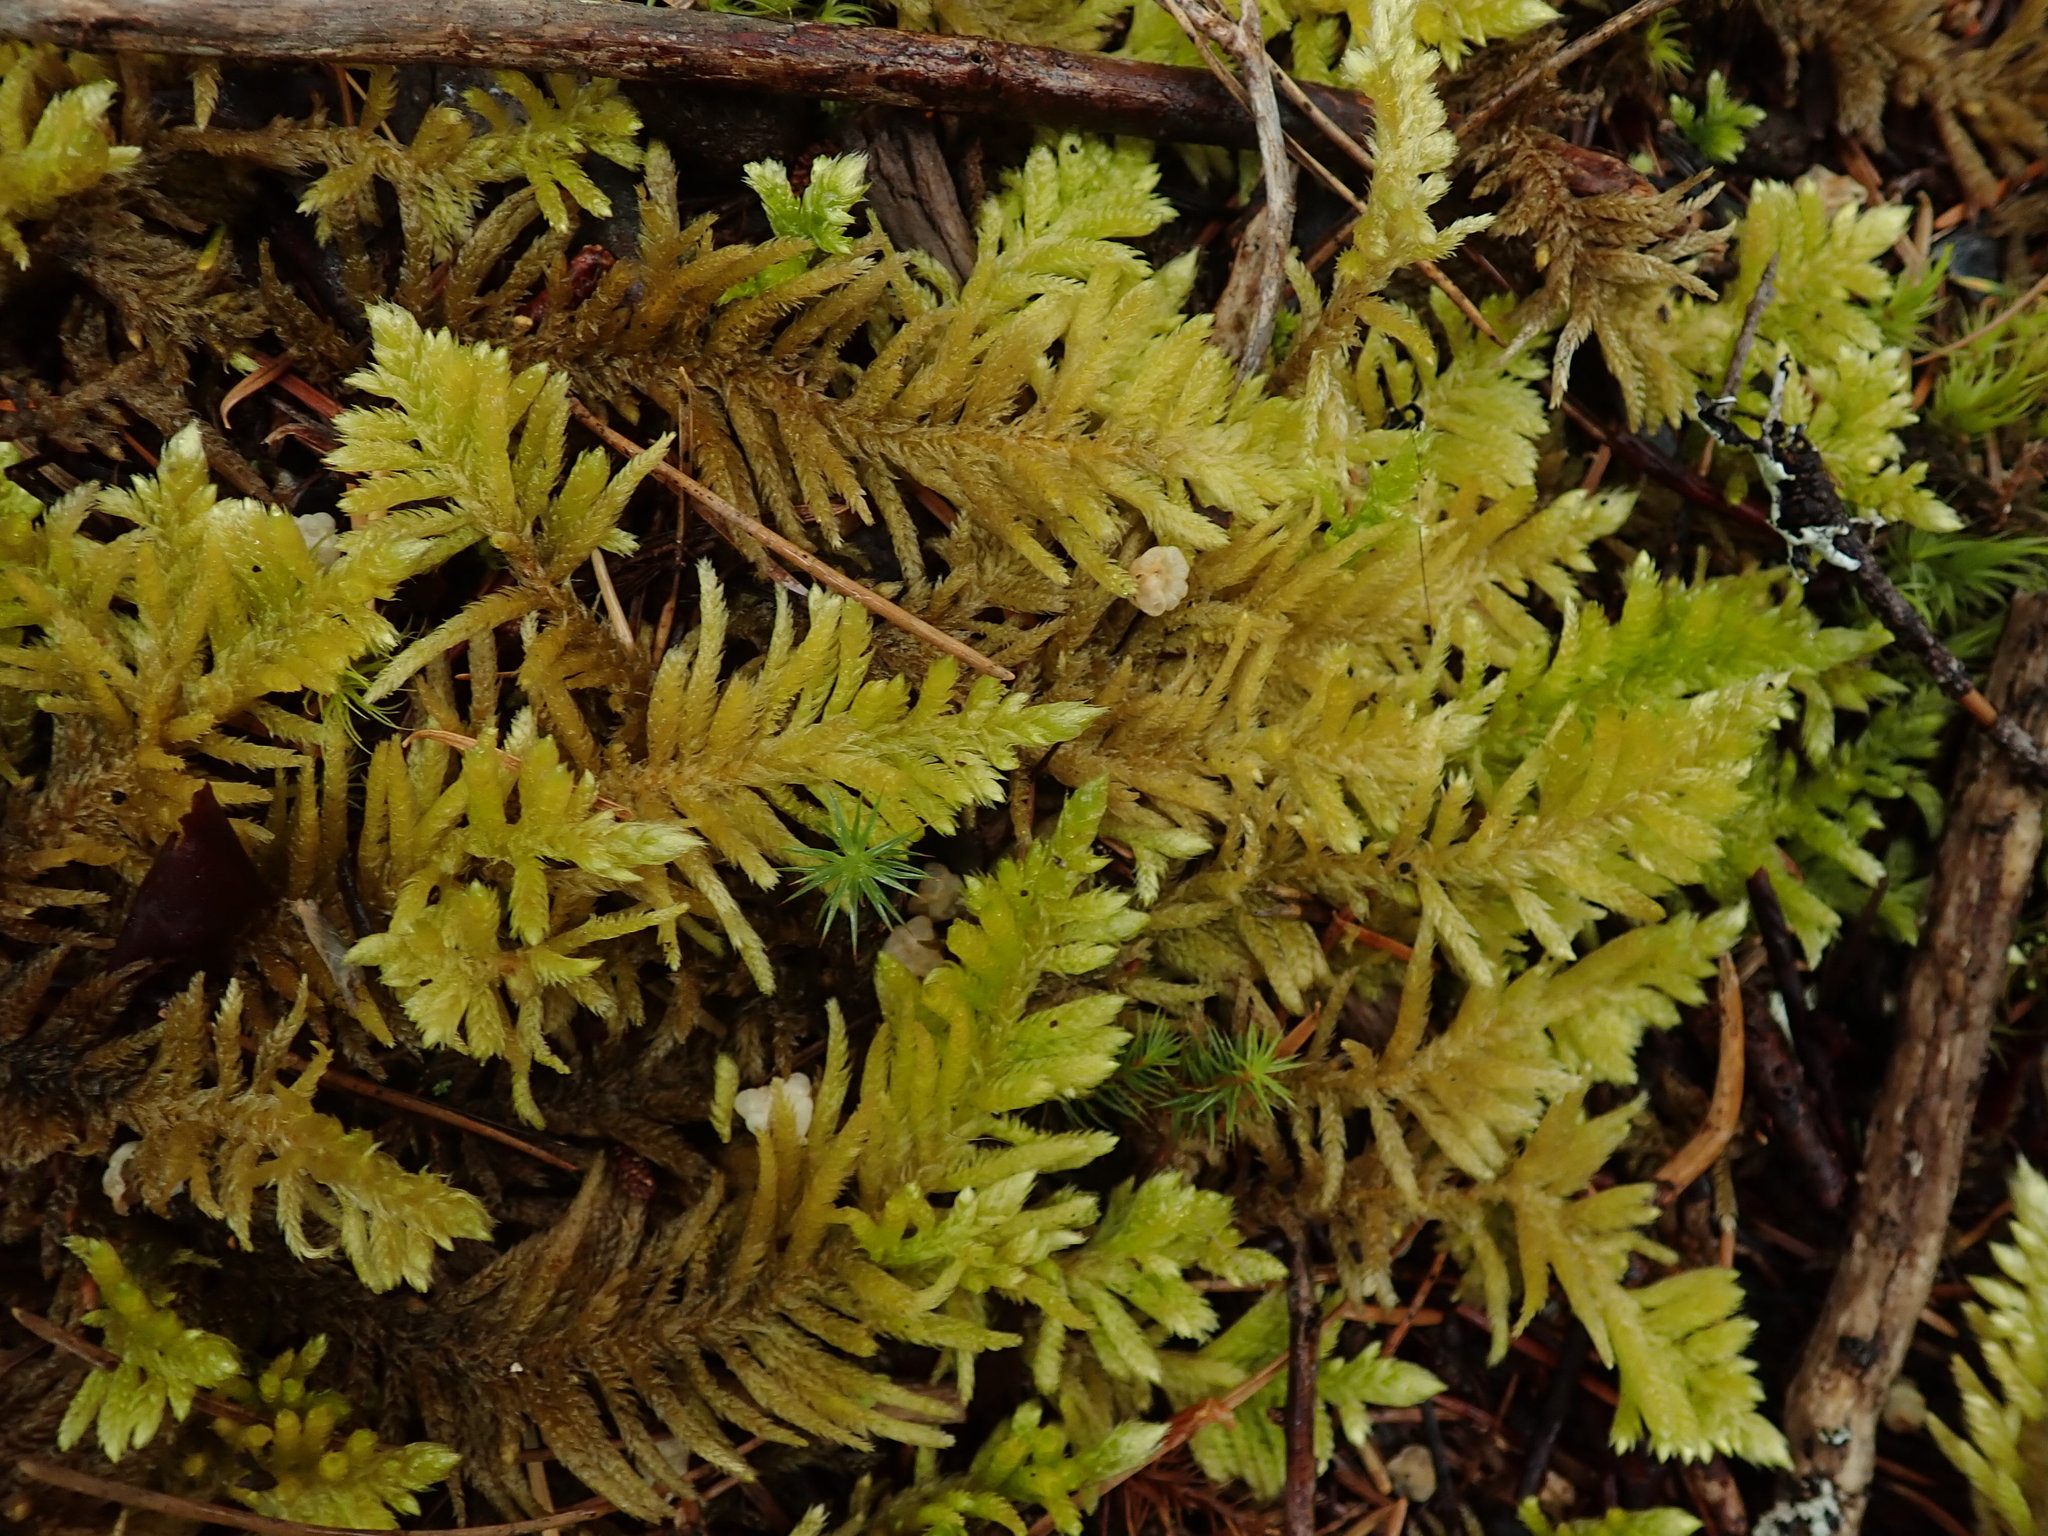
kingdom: Plantae
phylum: Bryophyta
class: Bryopsida
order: Hypnales
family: Brachytheciaceae
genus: Homalothecium
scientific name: Homalothecium megaptilum
